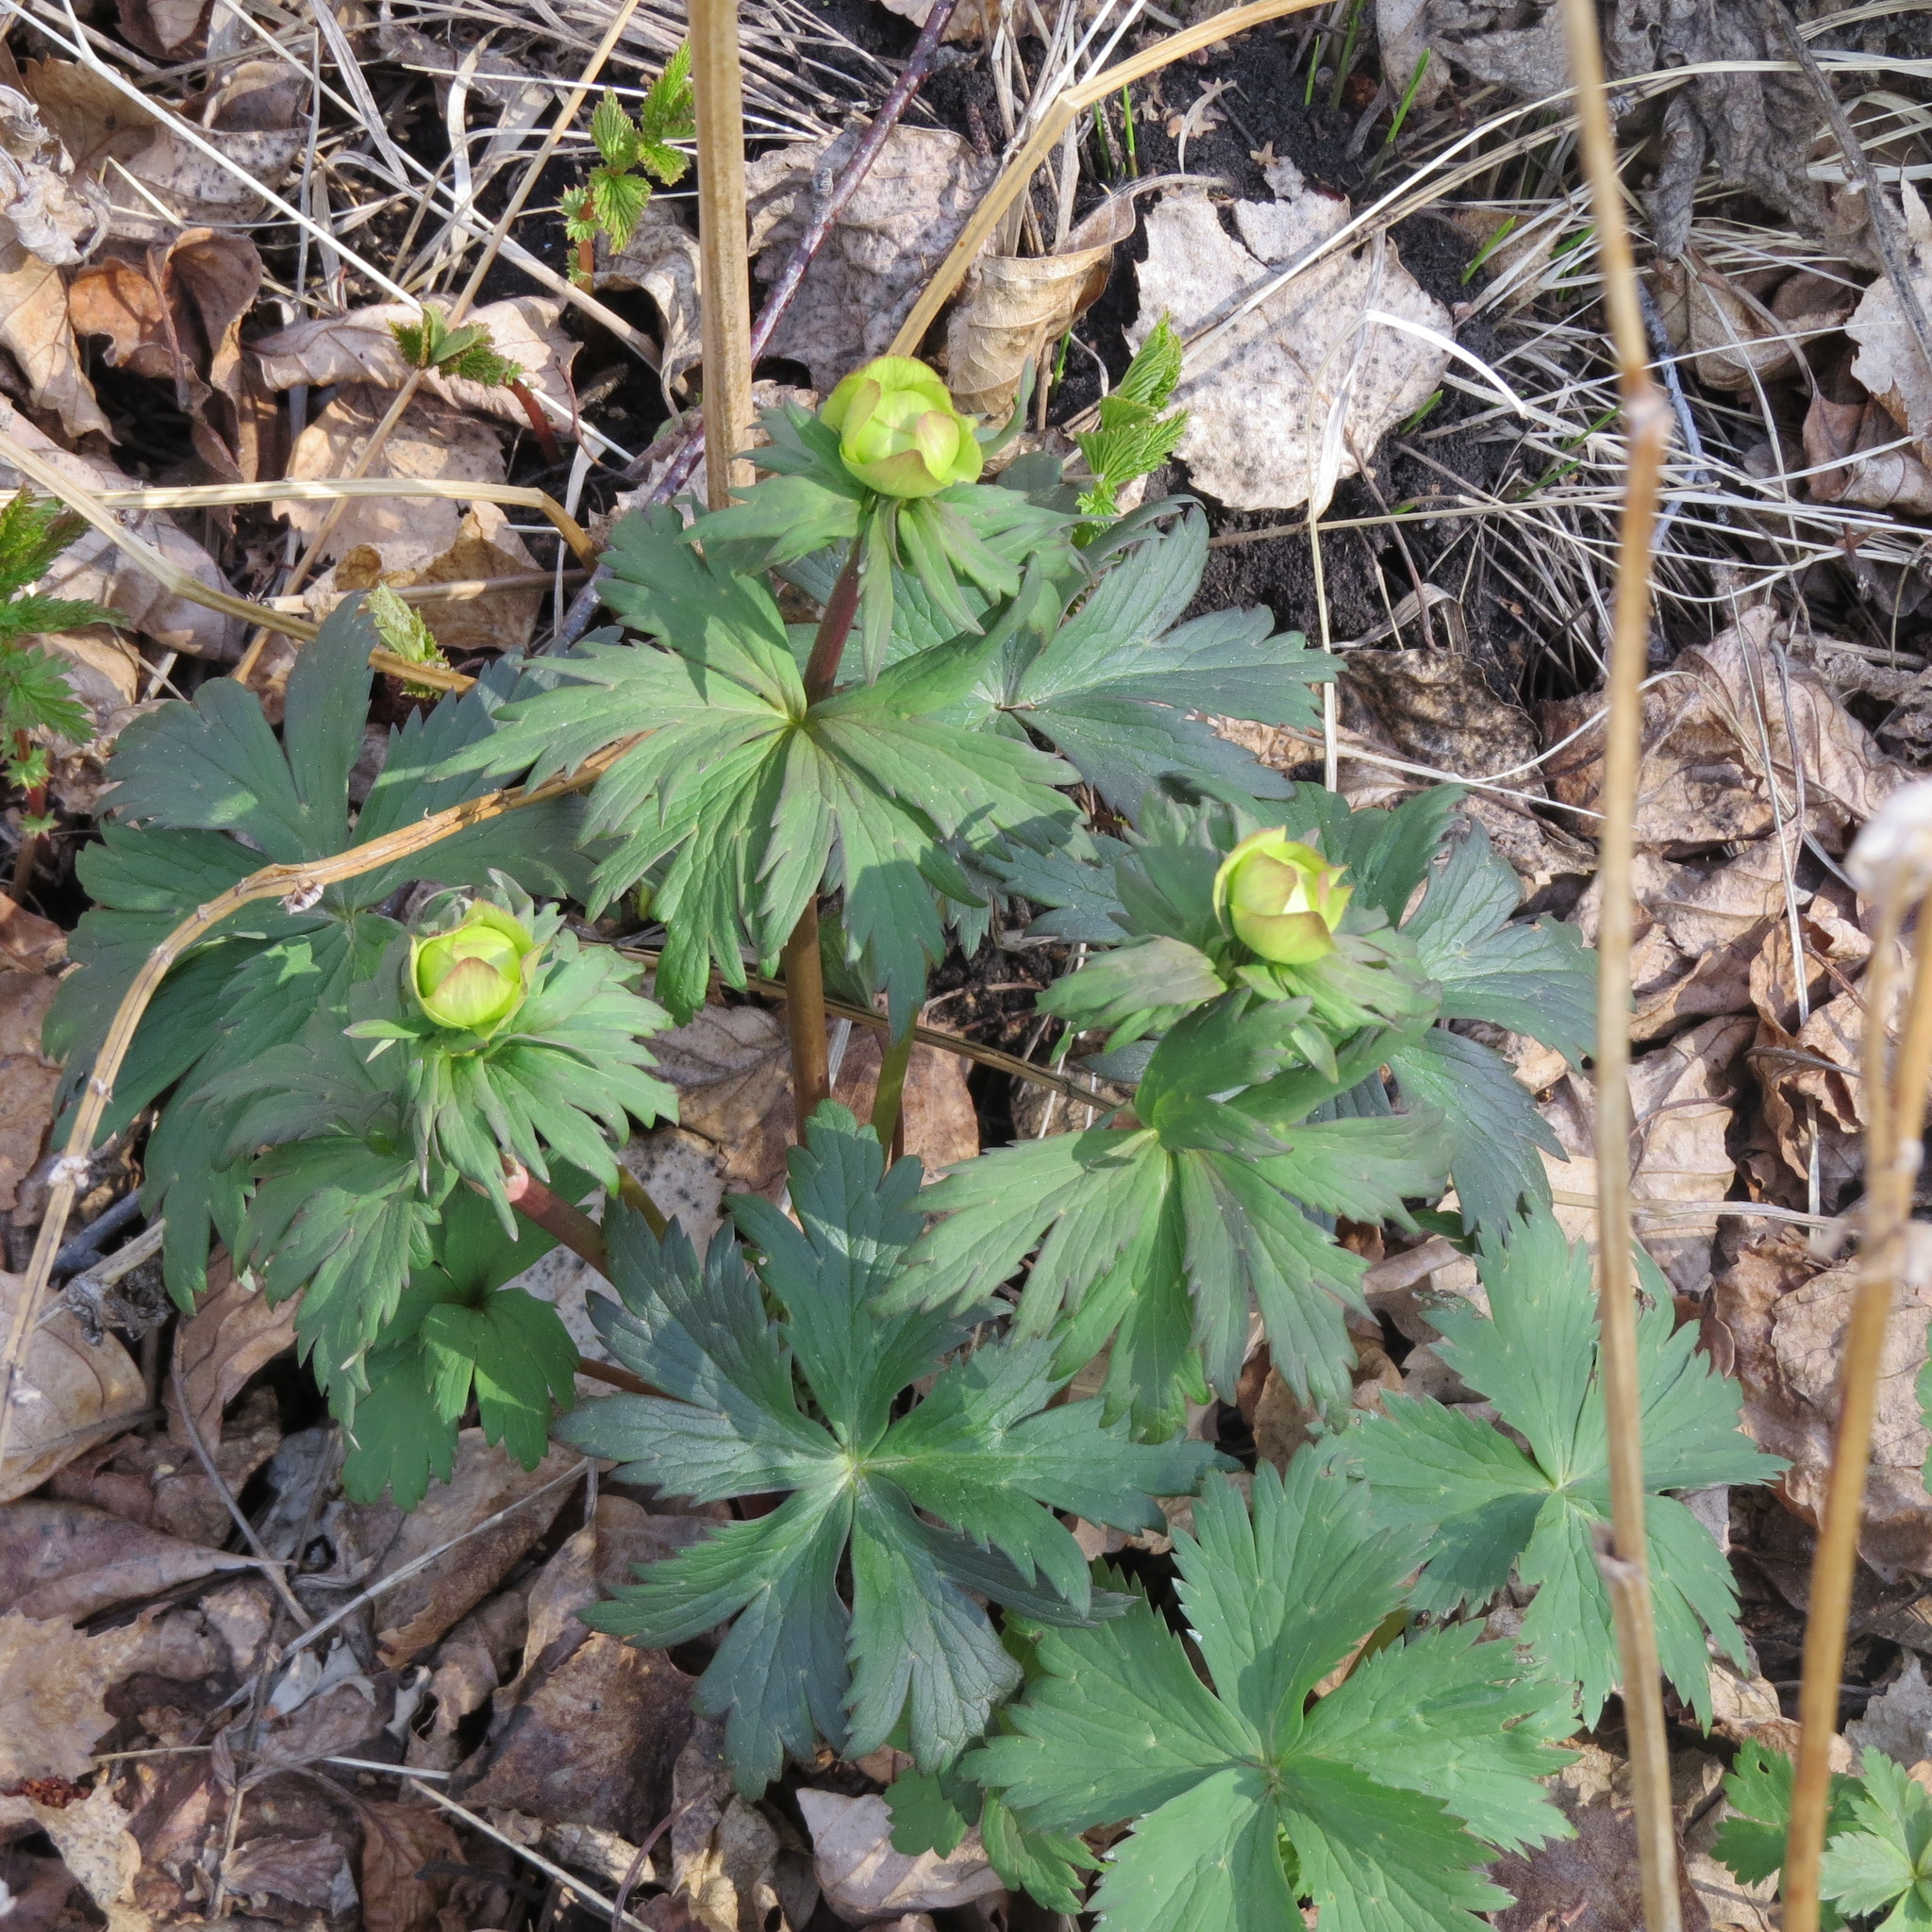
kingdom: Plantae
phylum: Tracheophyta
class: Magnoliopsida
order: Ranunculales
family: Ranunculaceae
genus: Trollius
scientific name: Trollius europaeus
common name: European globeflower
